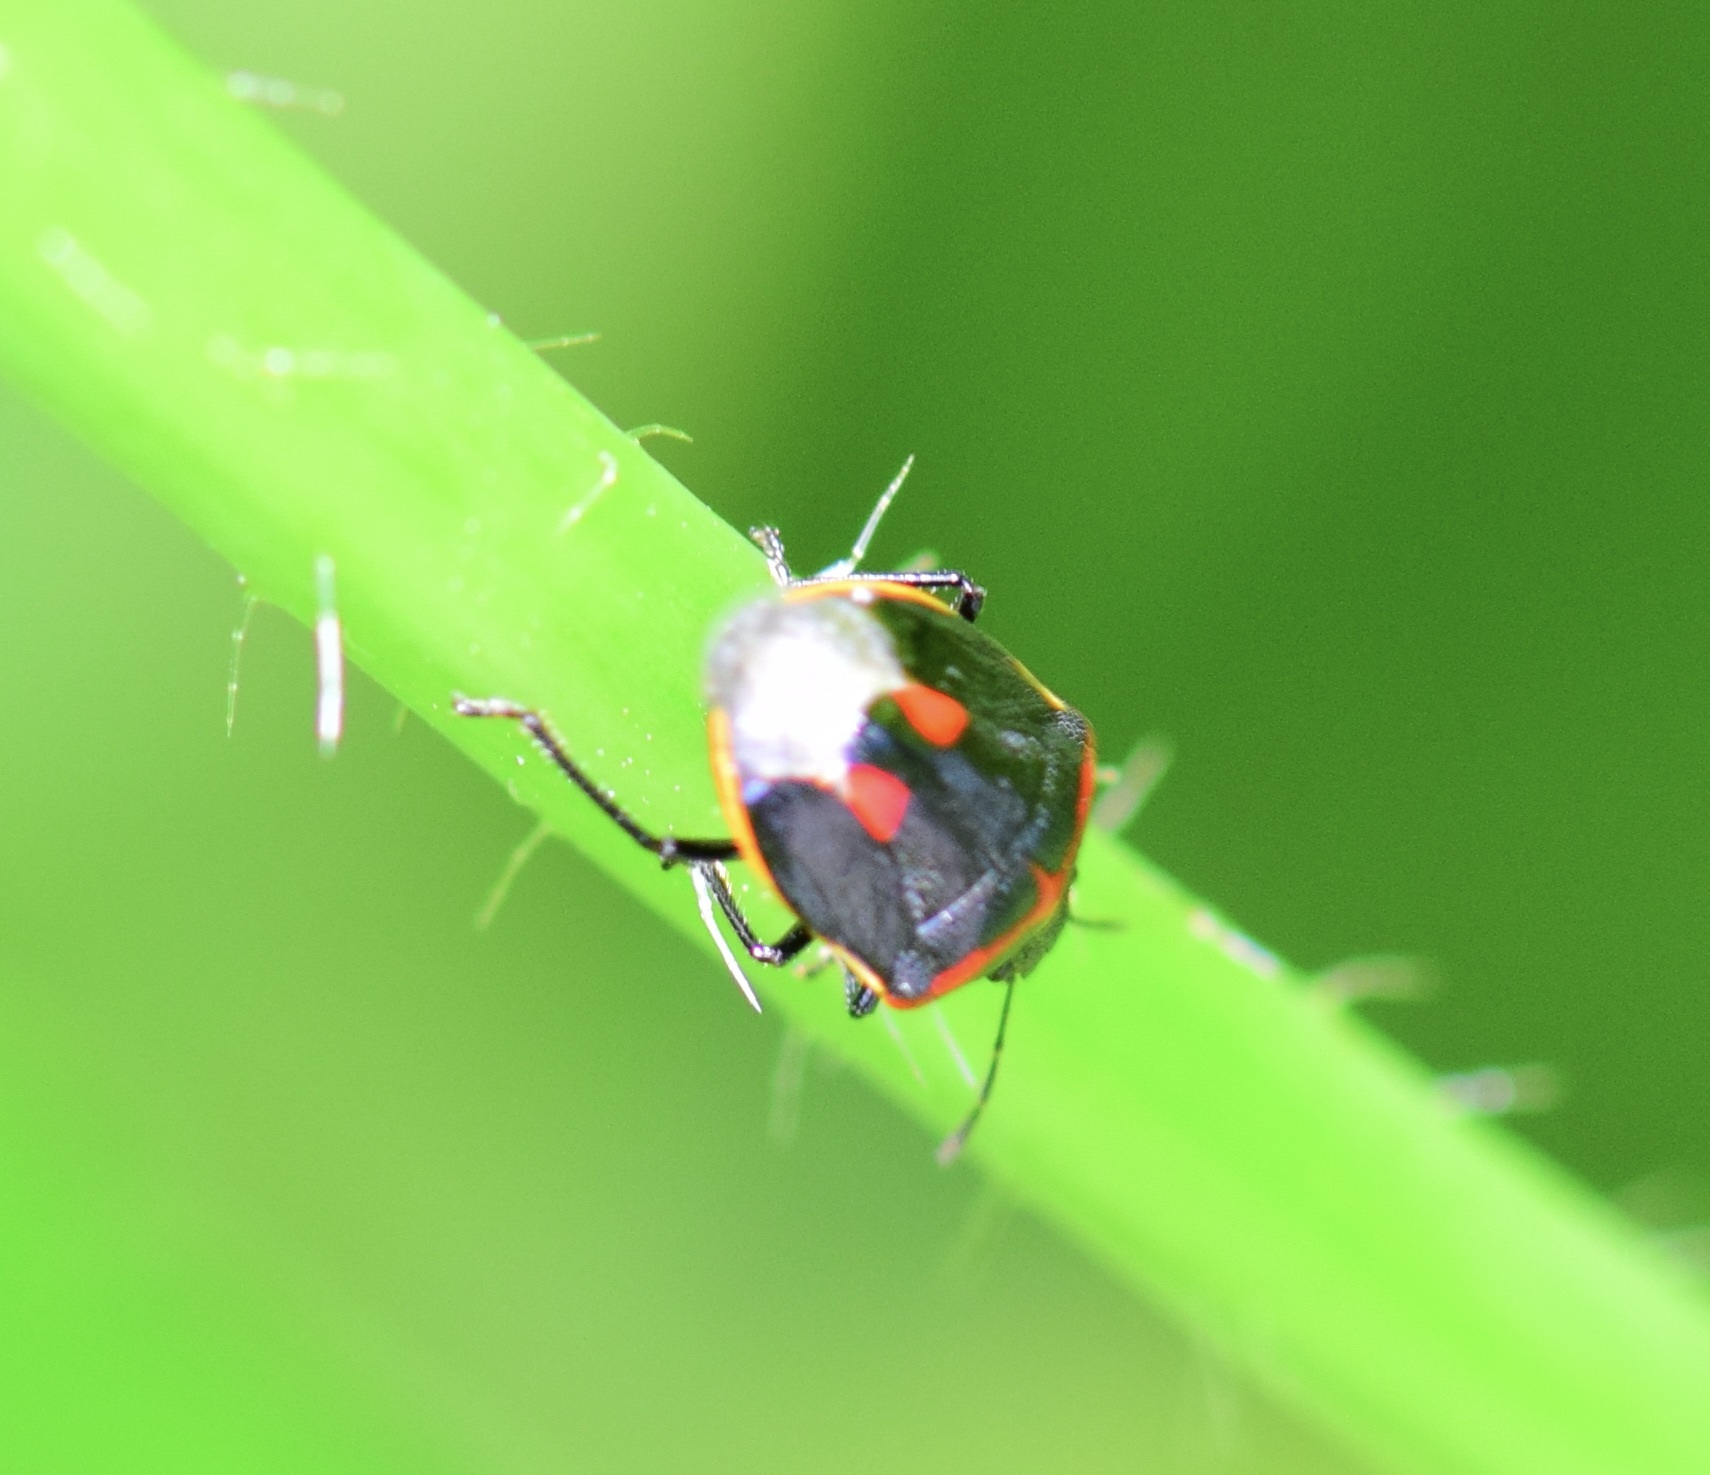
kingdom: Animalia
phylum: Arthropoda
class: Insecta
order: Hemiptera
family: Pentatomidae
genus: Cosmopepla
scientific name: Cosmopepla lintneriana
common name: Twice-stabbed stink bug
